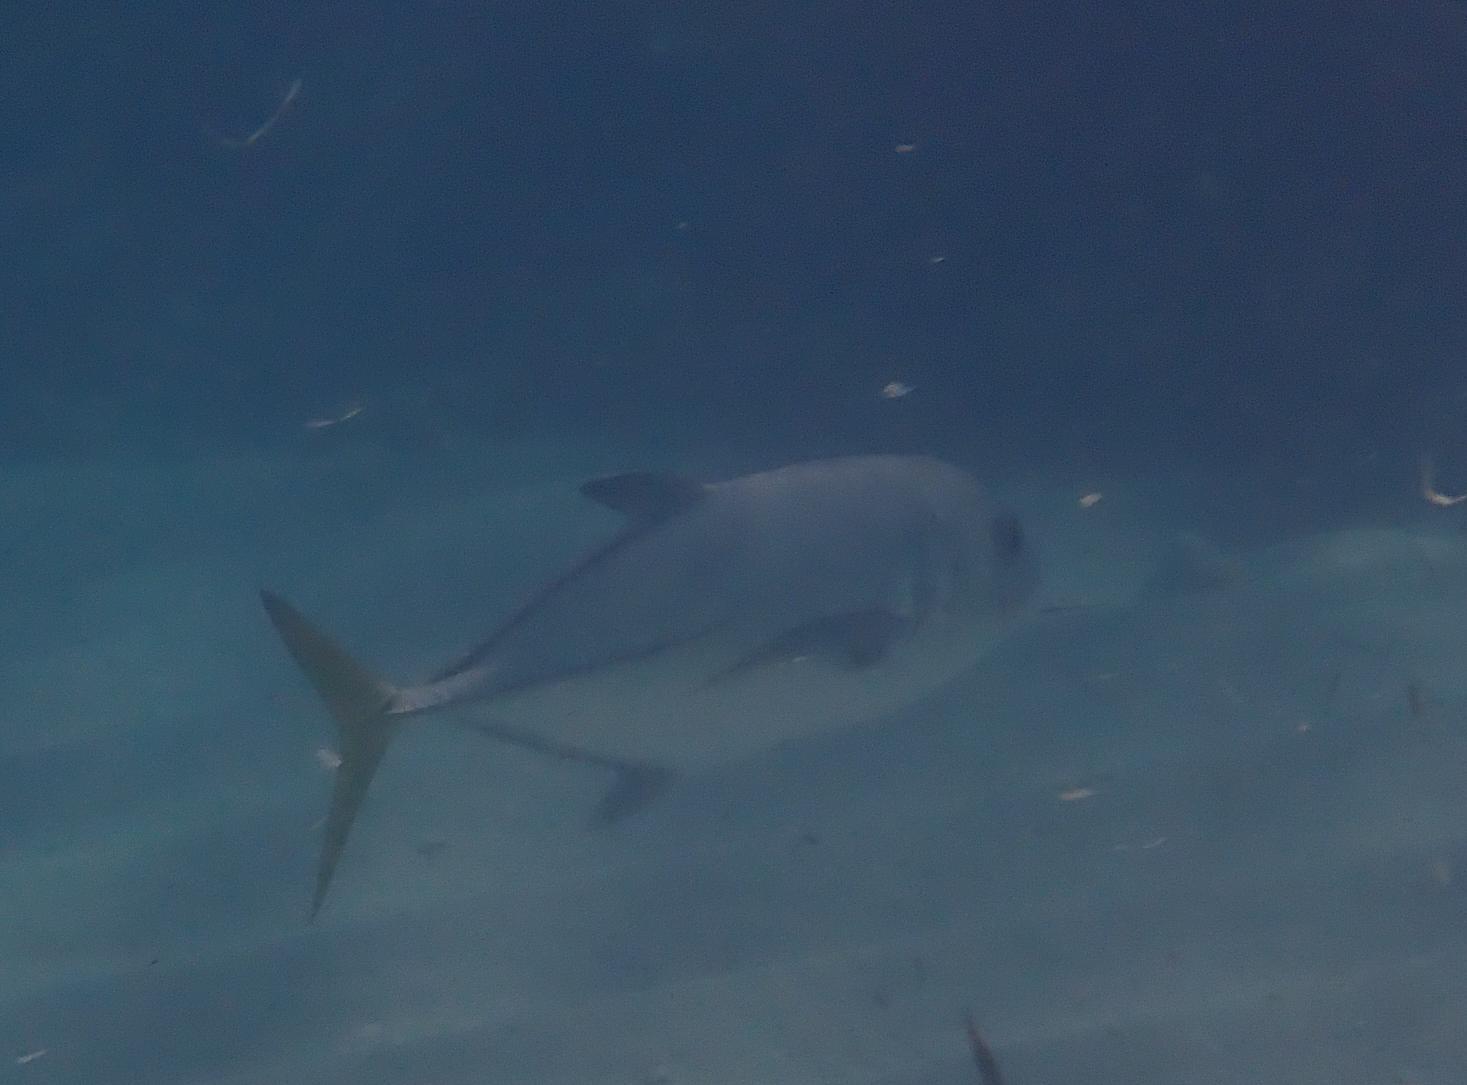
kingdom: Animalia
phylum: Chordata
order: Perciformes
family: Carangidae
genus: Caranx
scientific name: Caranx latus
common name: Horse eye jack
